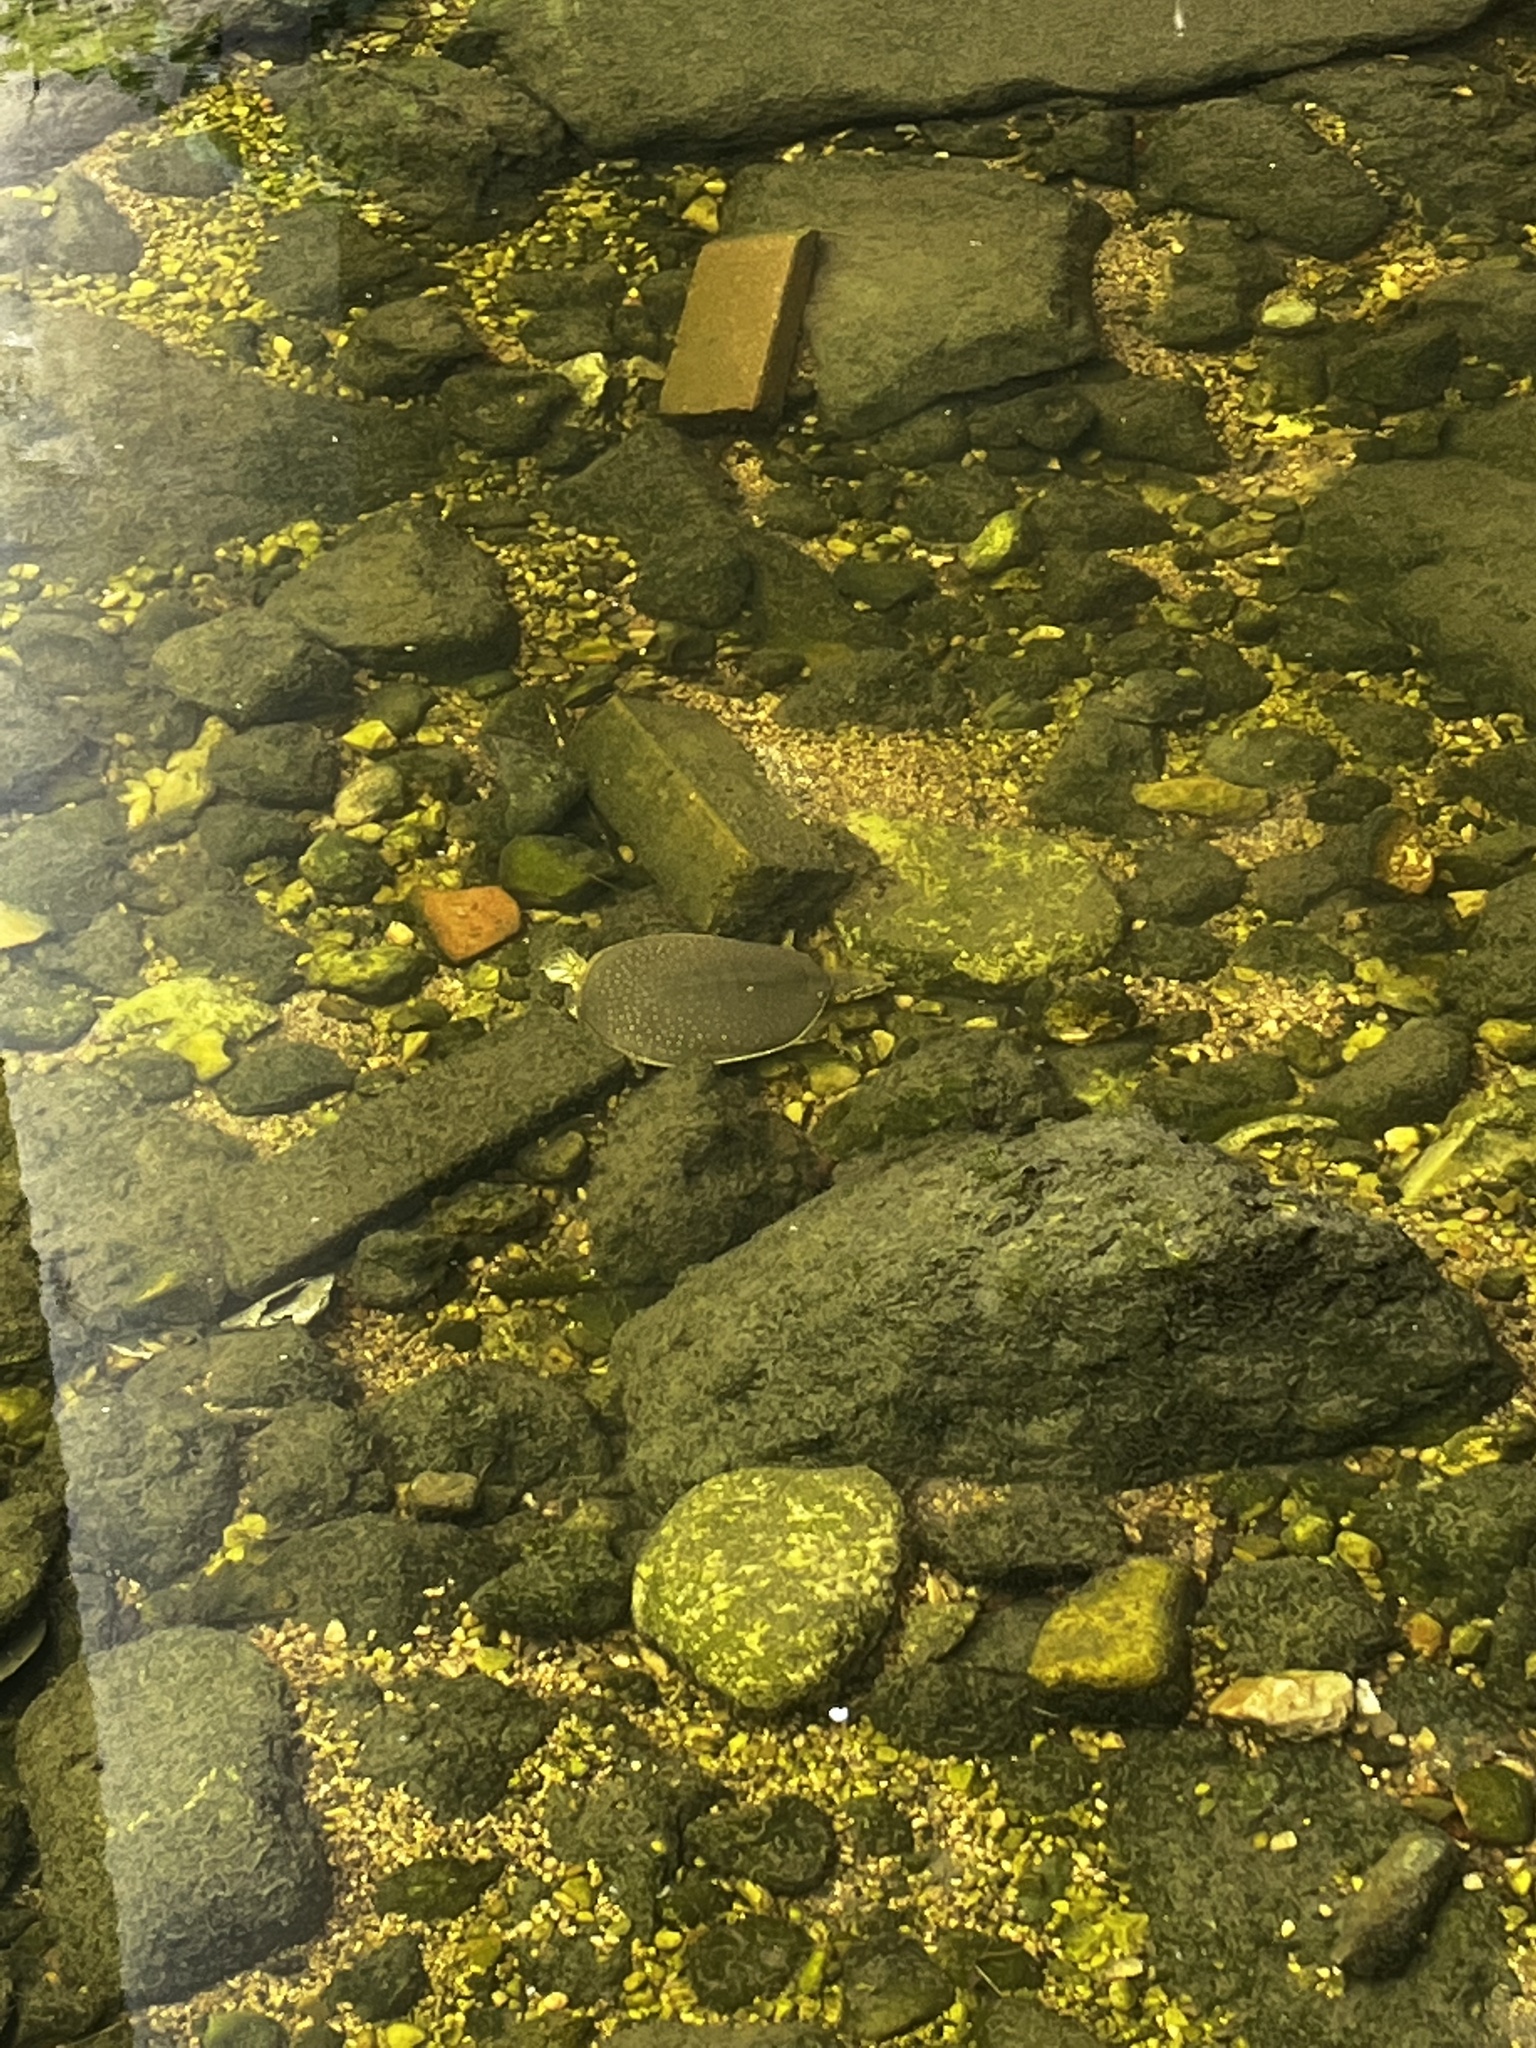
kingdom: Animalia
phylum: Chordata
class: Testudines
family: Trionychidae
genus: Apalone
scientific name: Apalone spinifera
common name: Spiny softshell turtle
